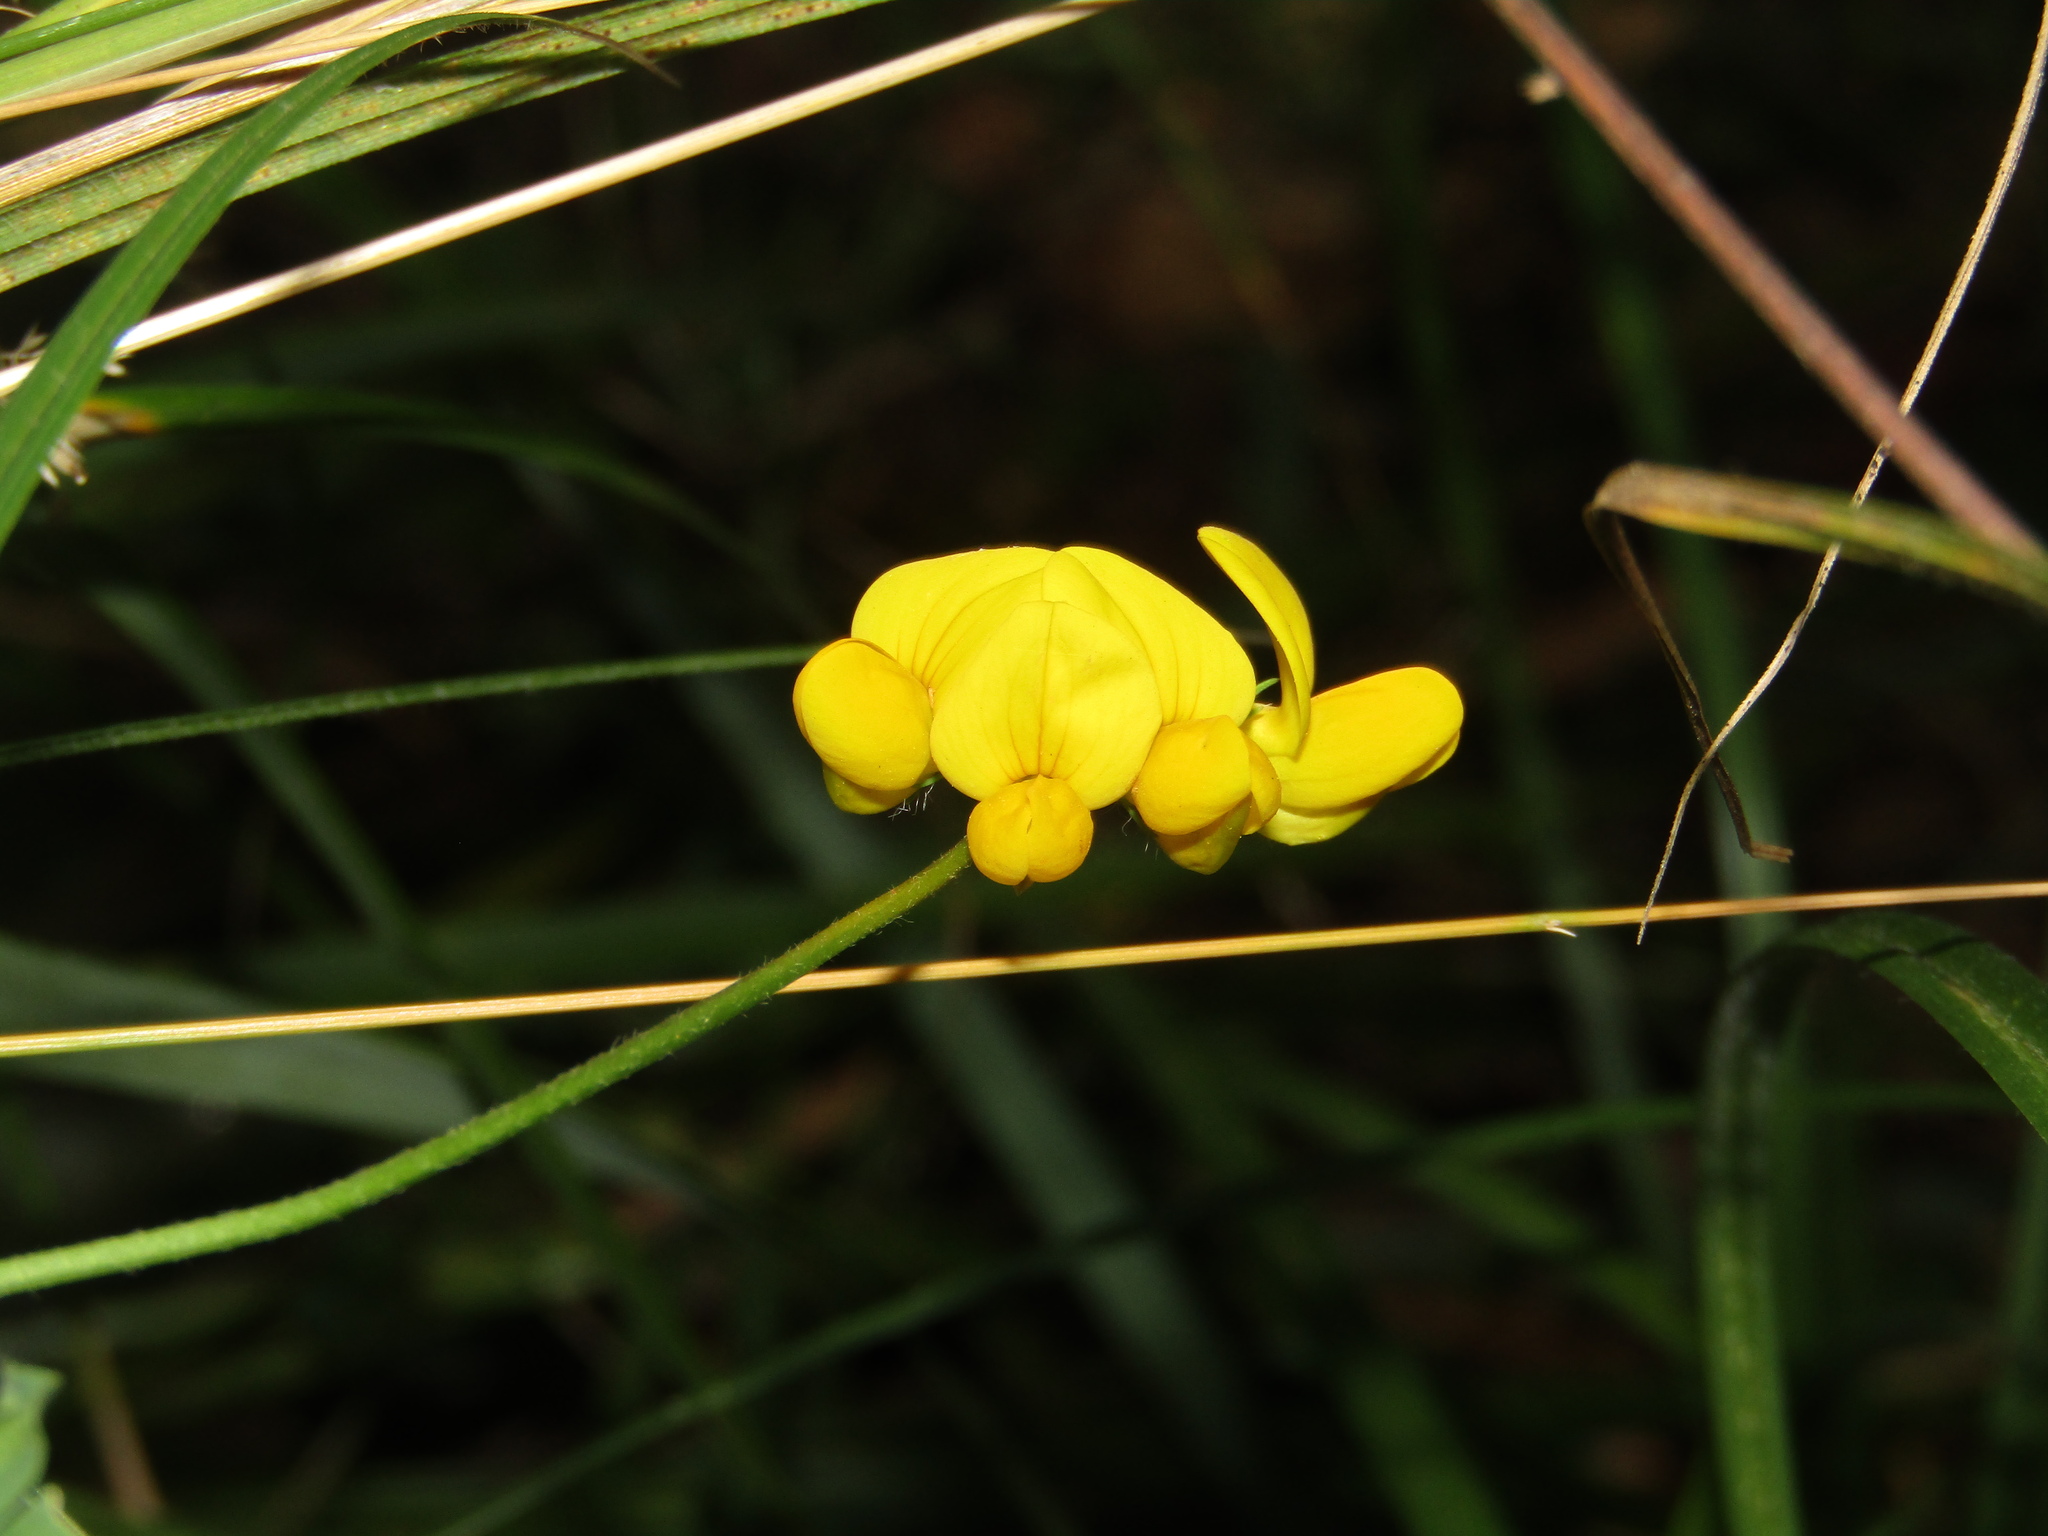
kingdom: Plantae
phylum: Tracheophyta
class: Magnoliopsida
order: Fabales
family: Fabaceae
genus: Lotus
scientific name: Lotus corniculatus
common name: Common bird's-foot-trefoil
